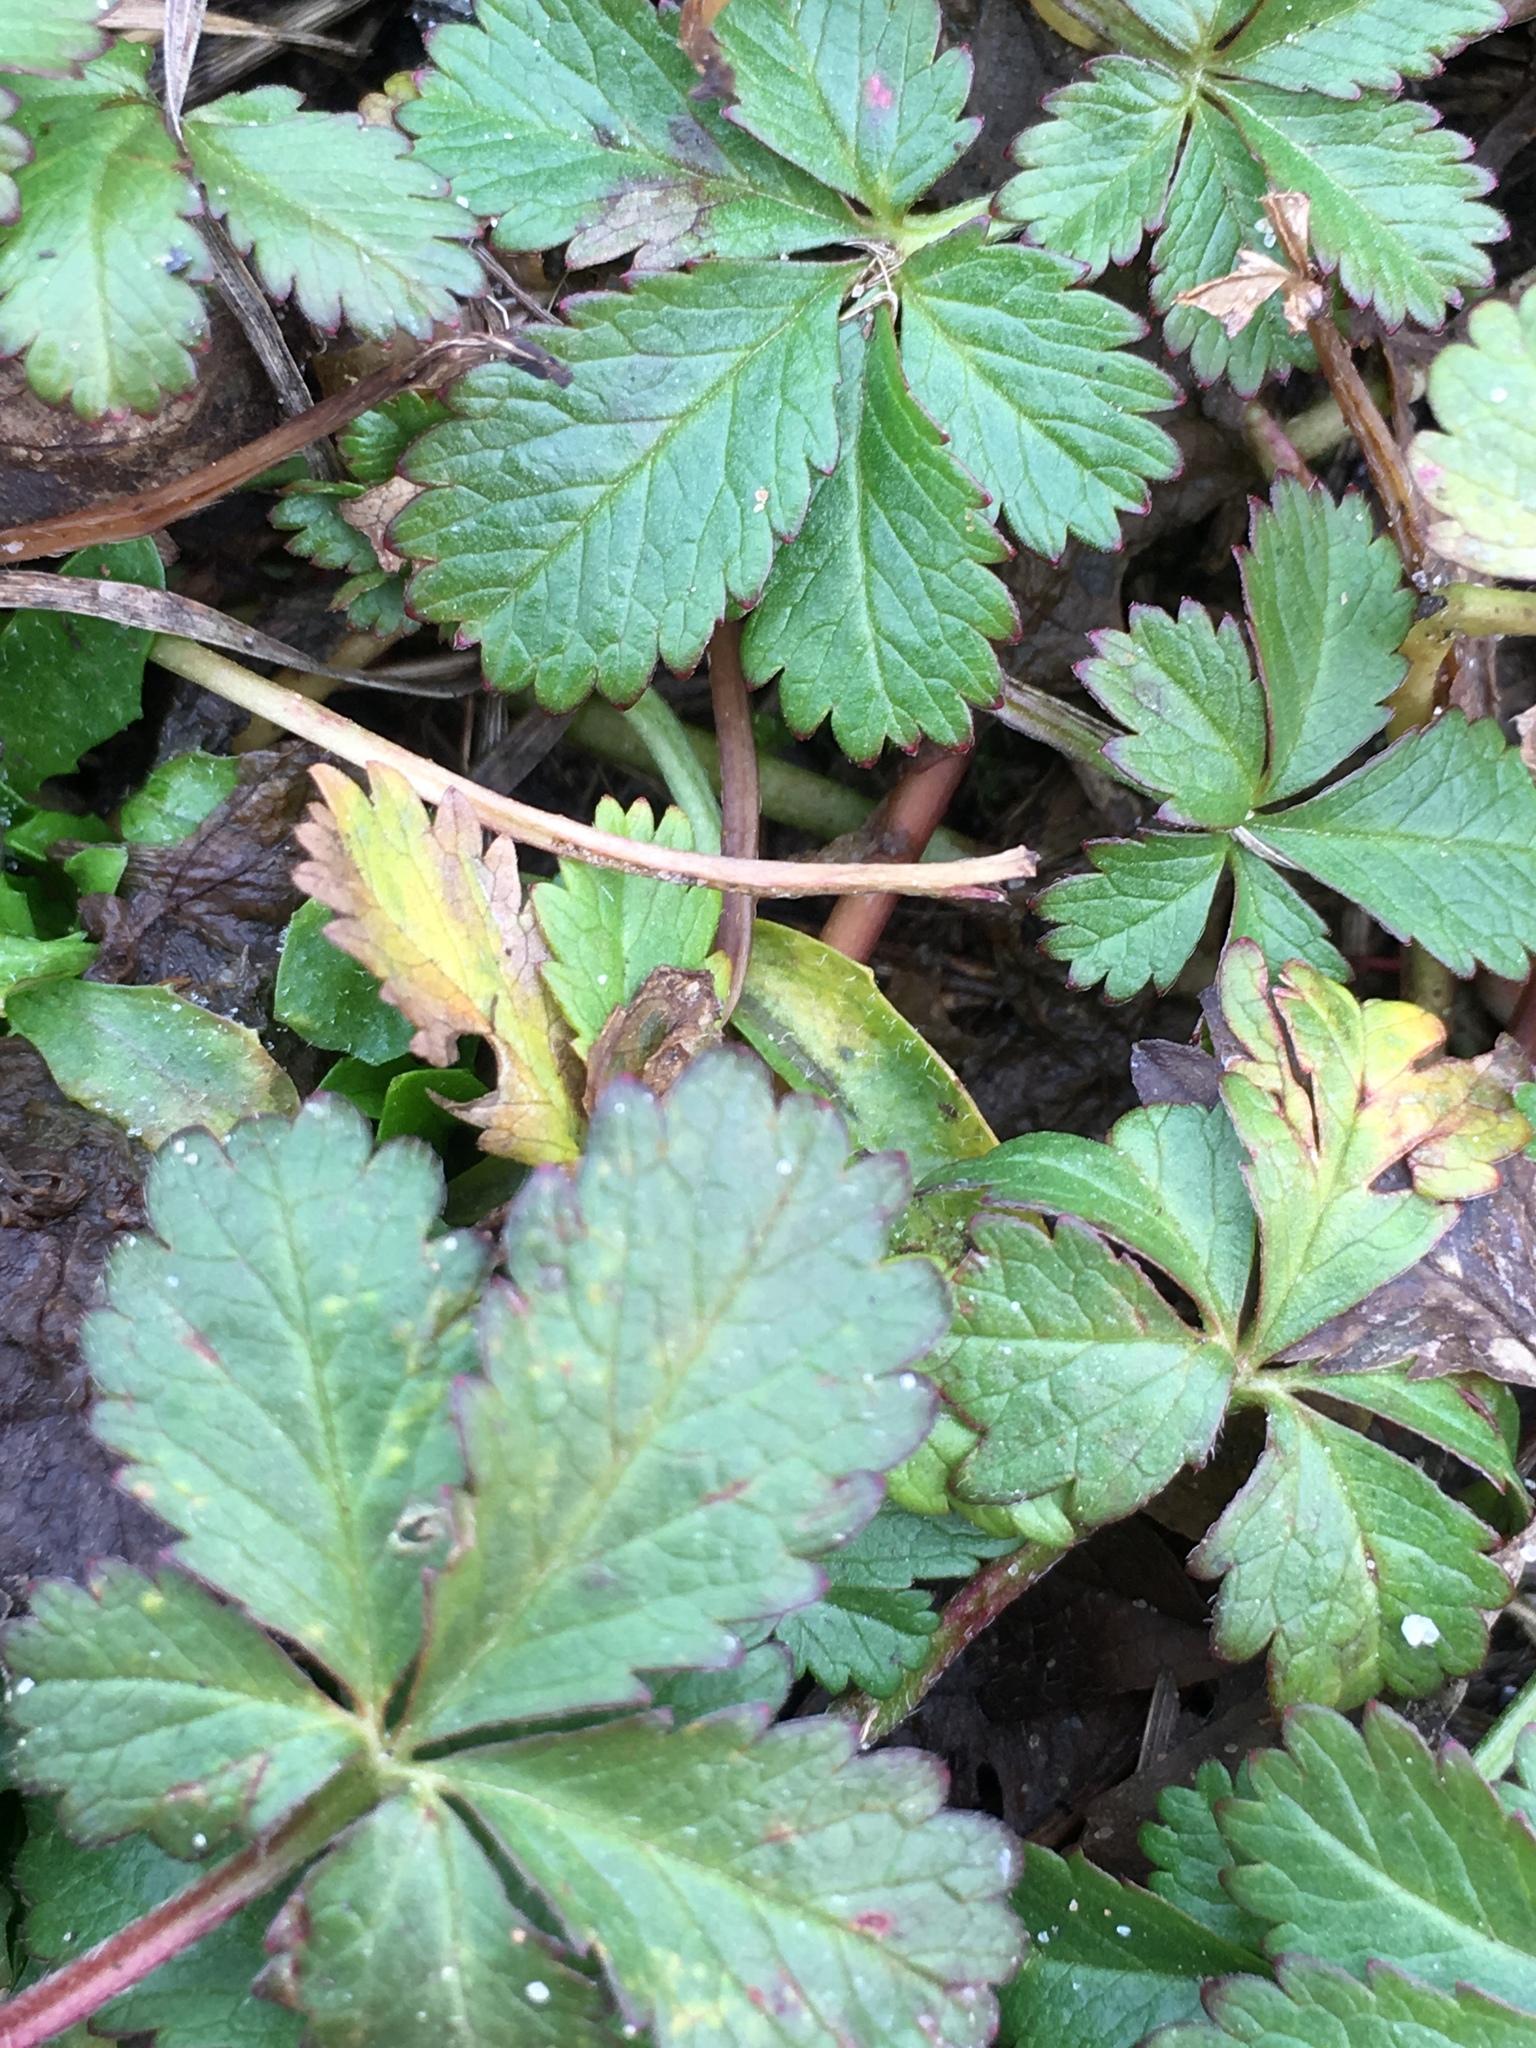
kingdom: Plantae
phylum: Tracheophyta
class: Magnoliopsida
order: Rosales
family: Rosaceae
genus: Potentilla
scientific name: Potentilla reptans
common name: Creeping cinquefoil
